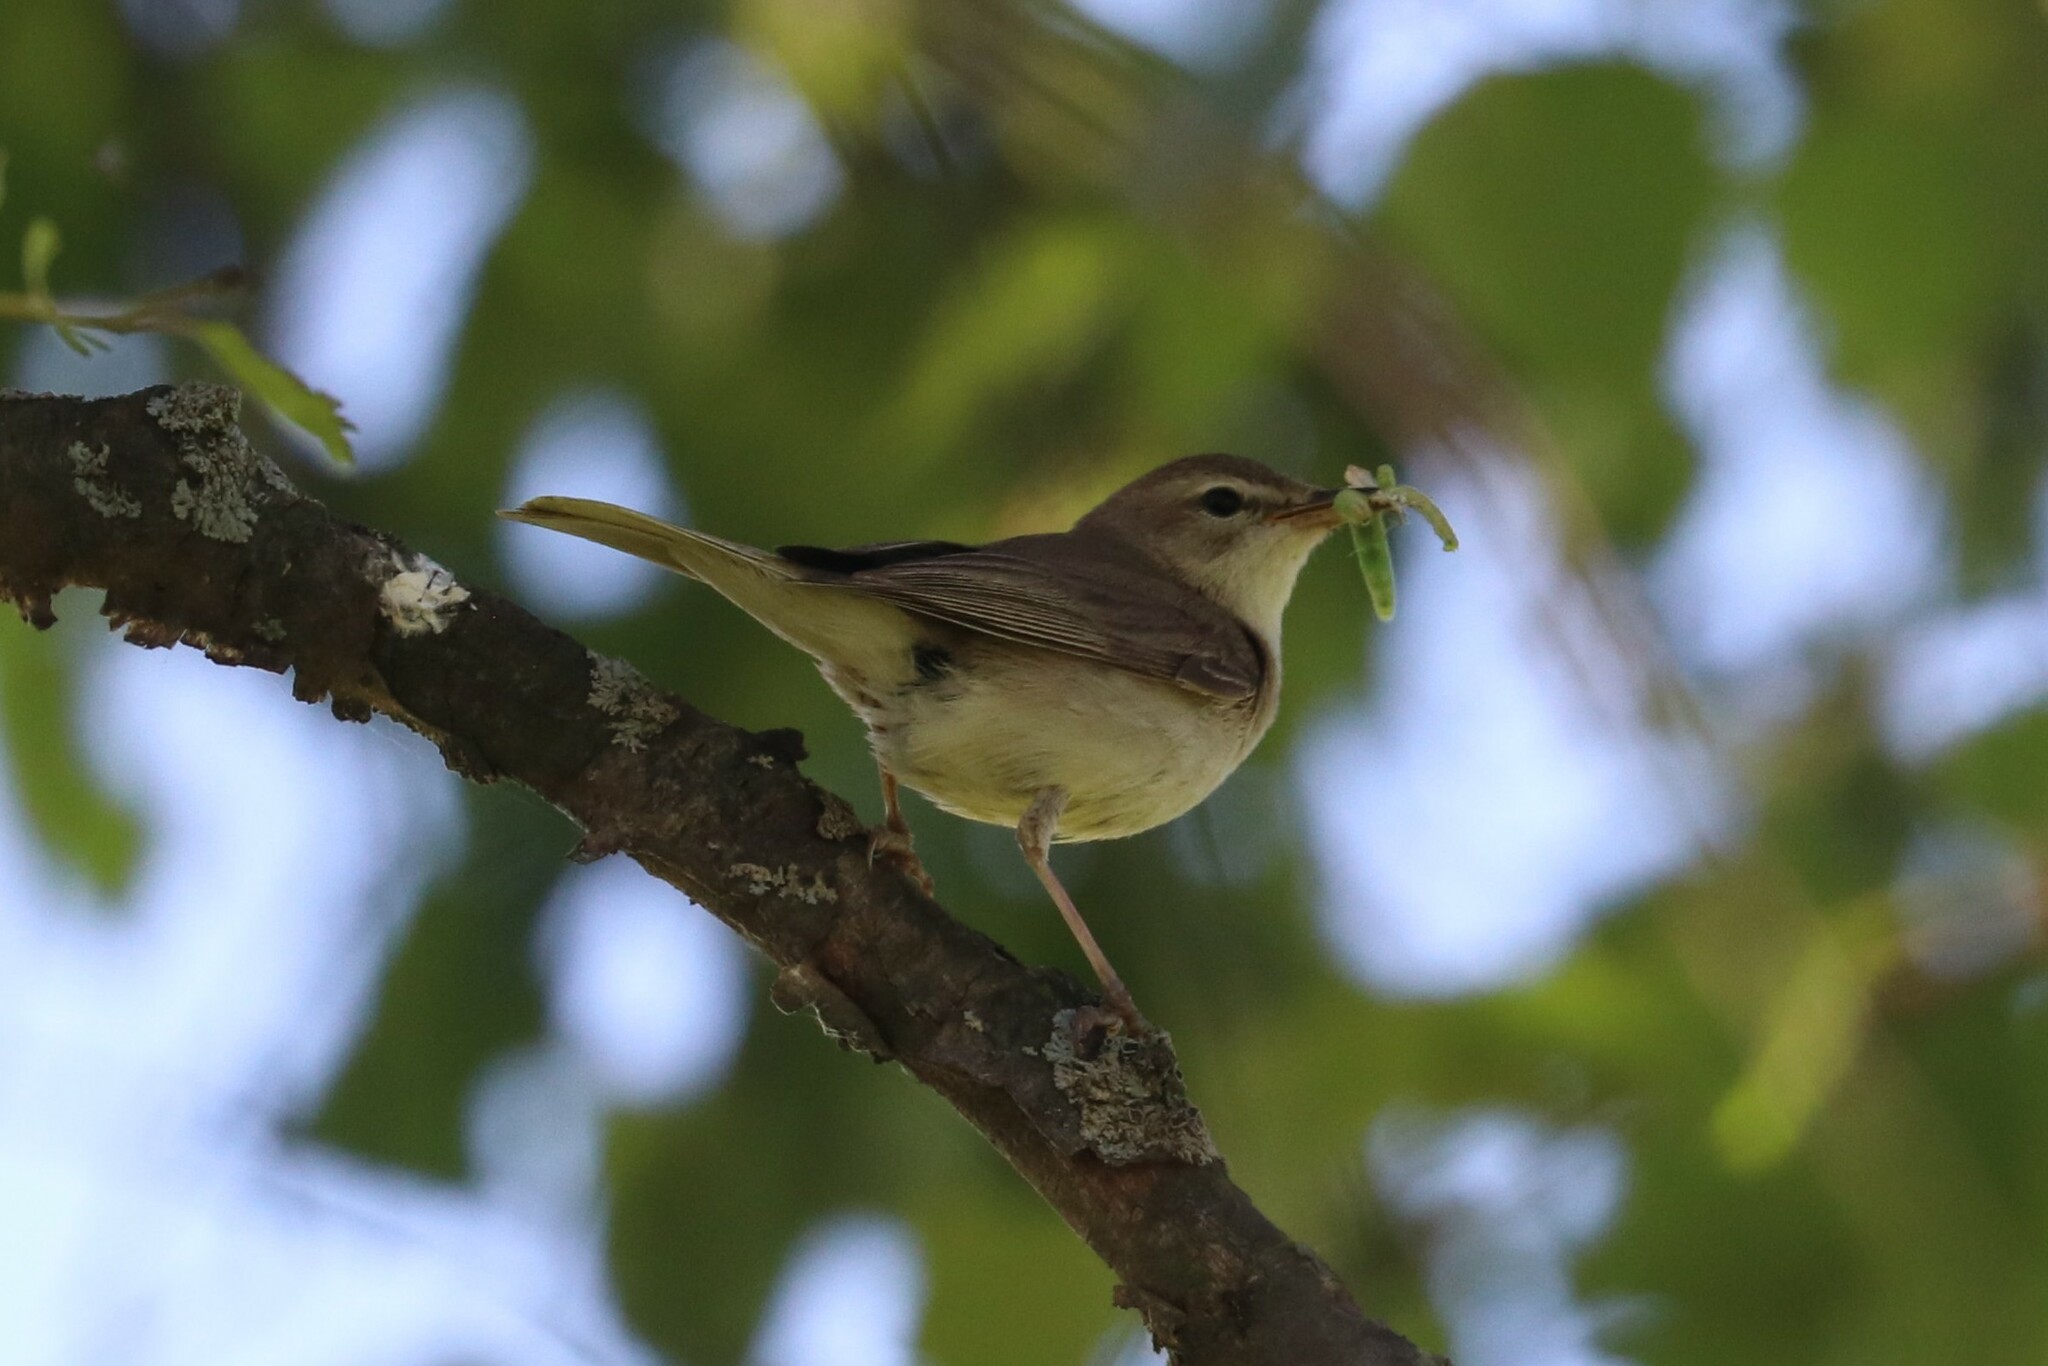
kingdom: Animalia
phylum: Chordata
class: Aves
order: Passeriformes
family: Acrocephalidae
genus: Iduna
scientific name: Iduna caligata
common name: Booted warbler
